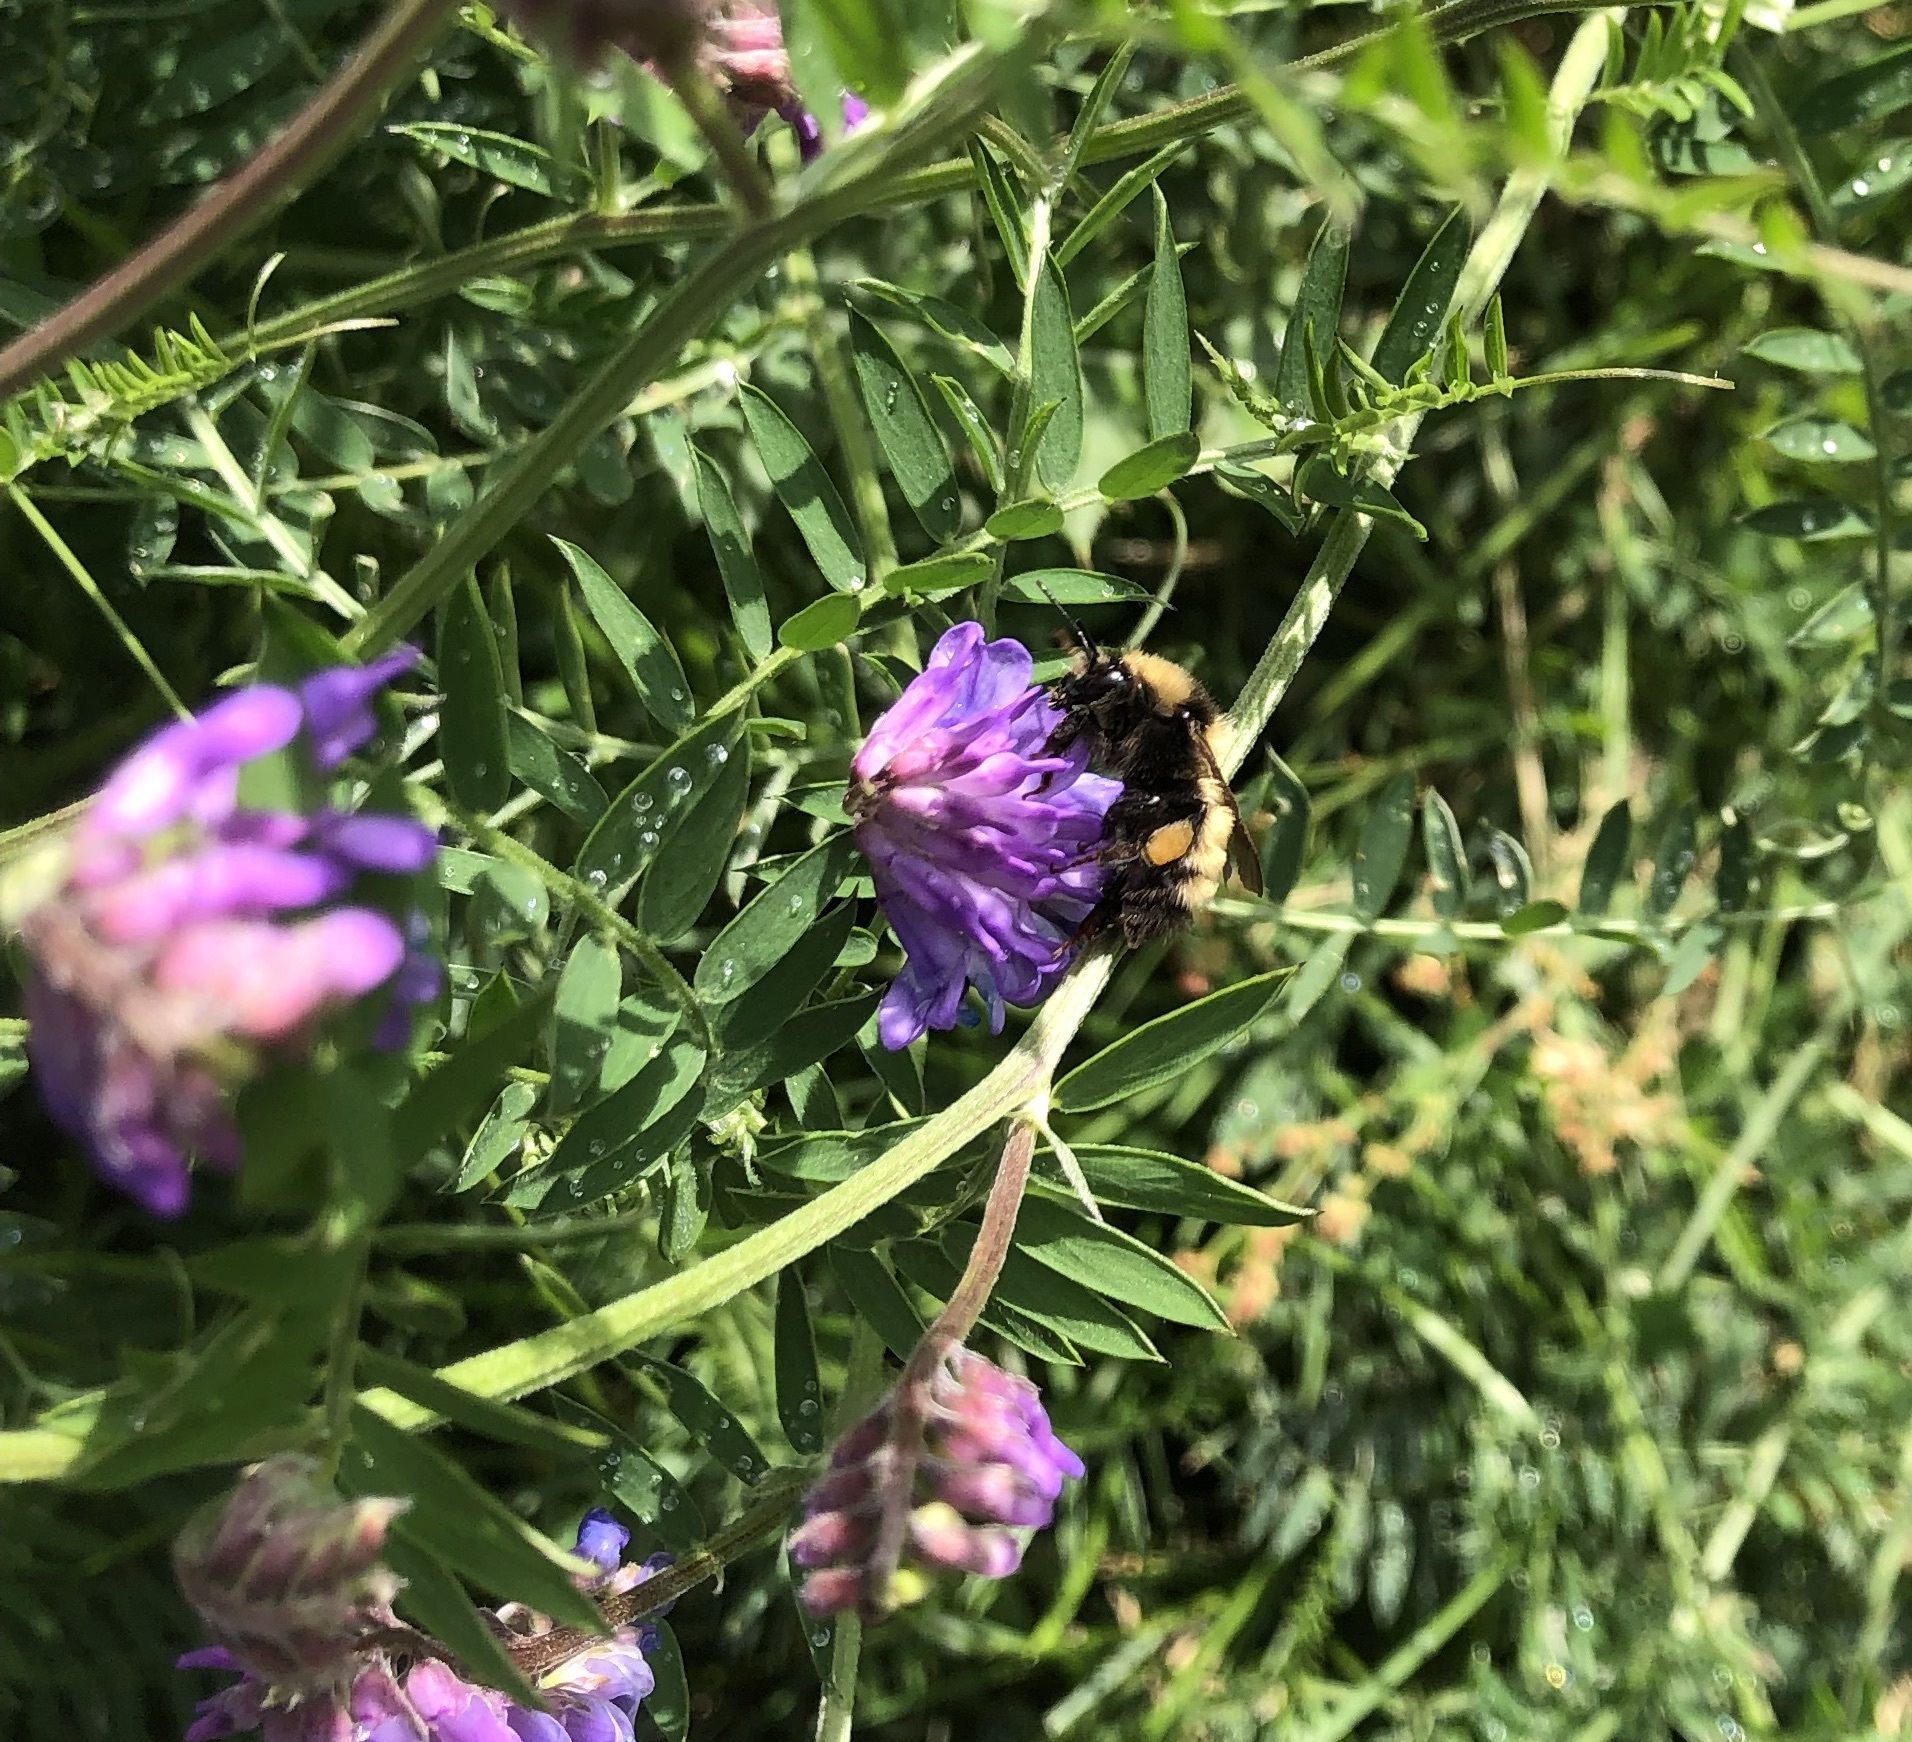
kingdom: Animalia
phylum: Arthropoda
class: Insecta
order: Hymenoptera
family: Apidae
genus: Bombus
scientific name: Bombus borealis
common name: Northern amber bumble bee
